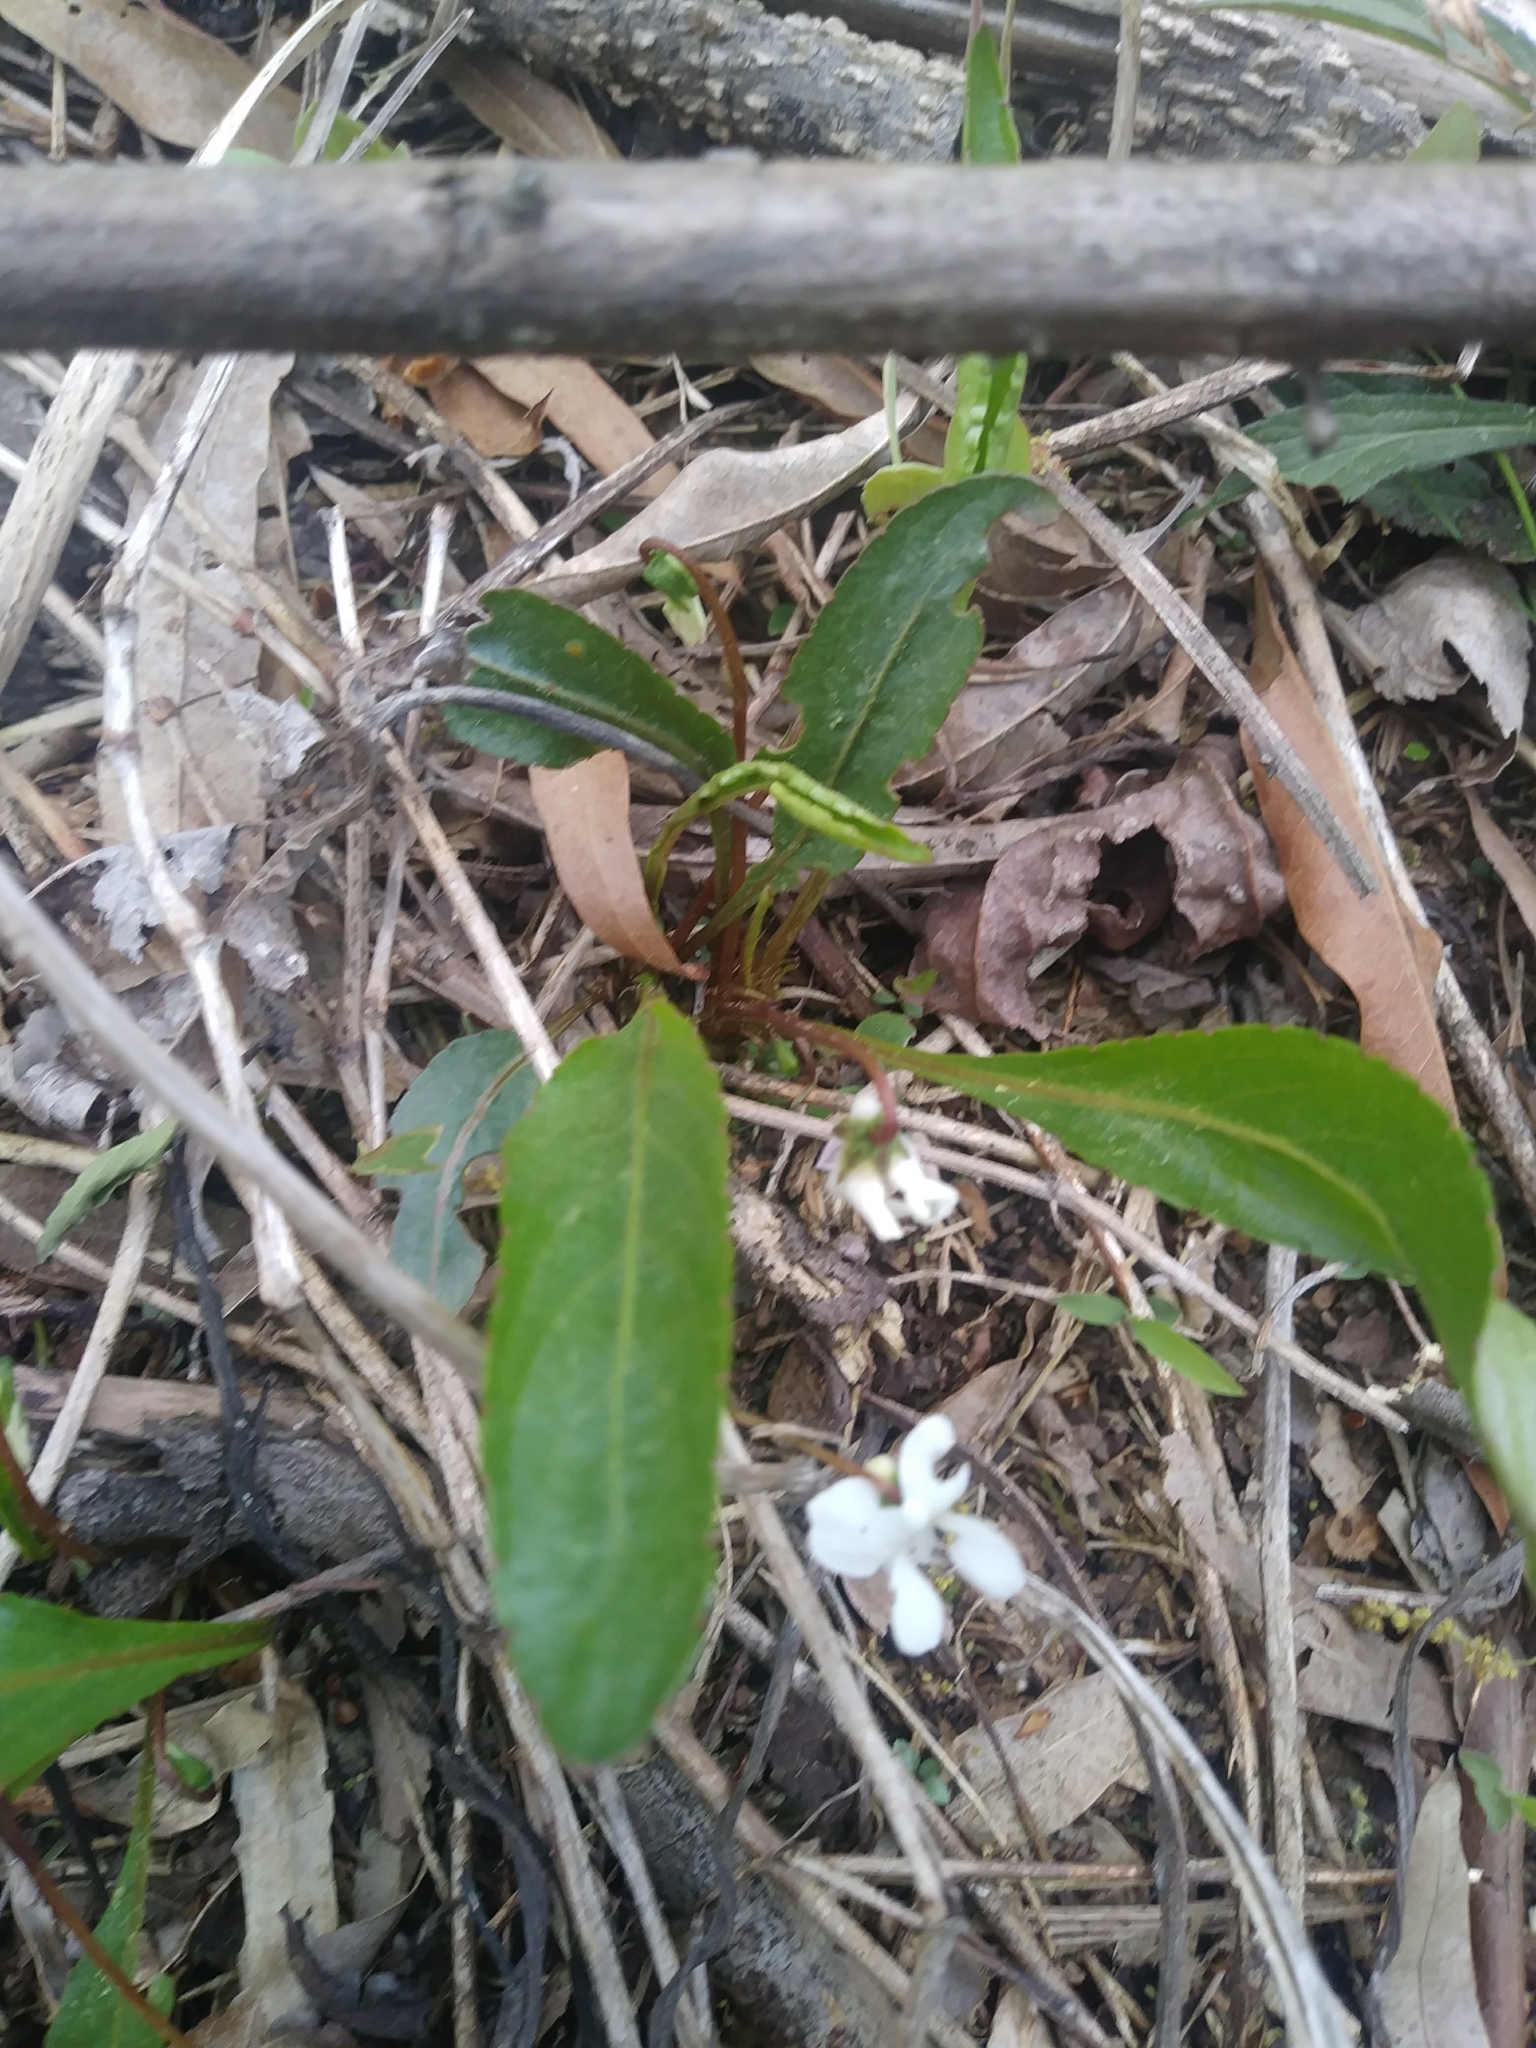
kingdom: Plantae
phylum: Tracheophyta
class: Magnoliopsida
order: Malpighiales
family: Violaceae
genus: Viola
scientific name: Viola lanceolata
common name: Bog white violet
